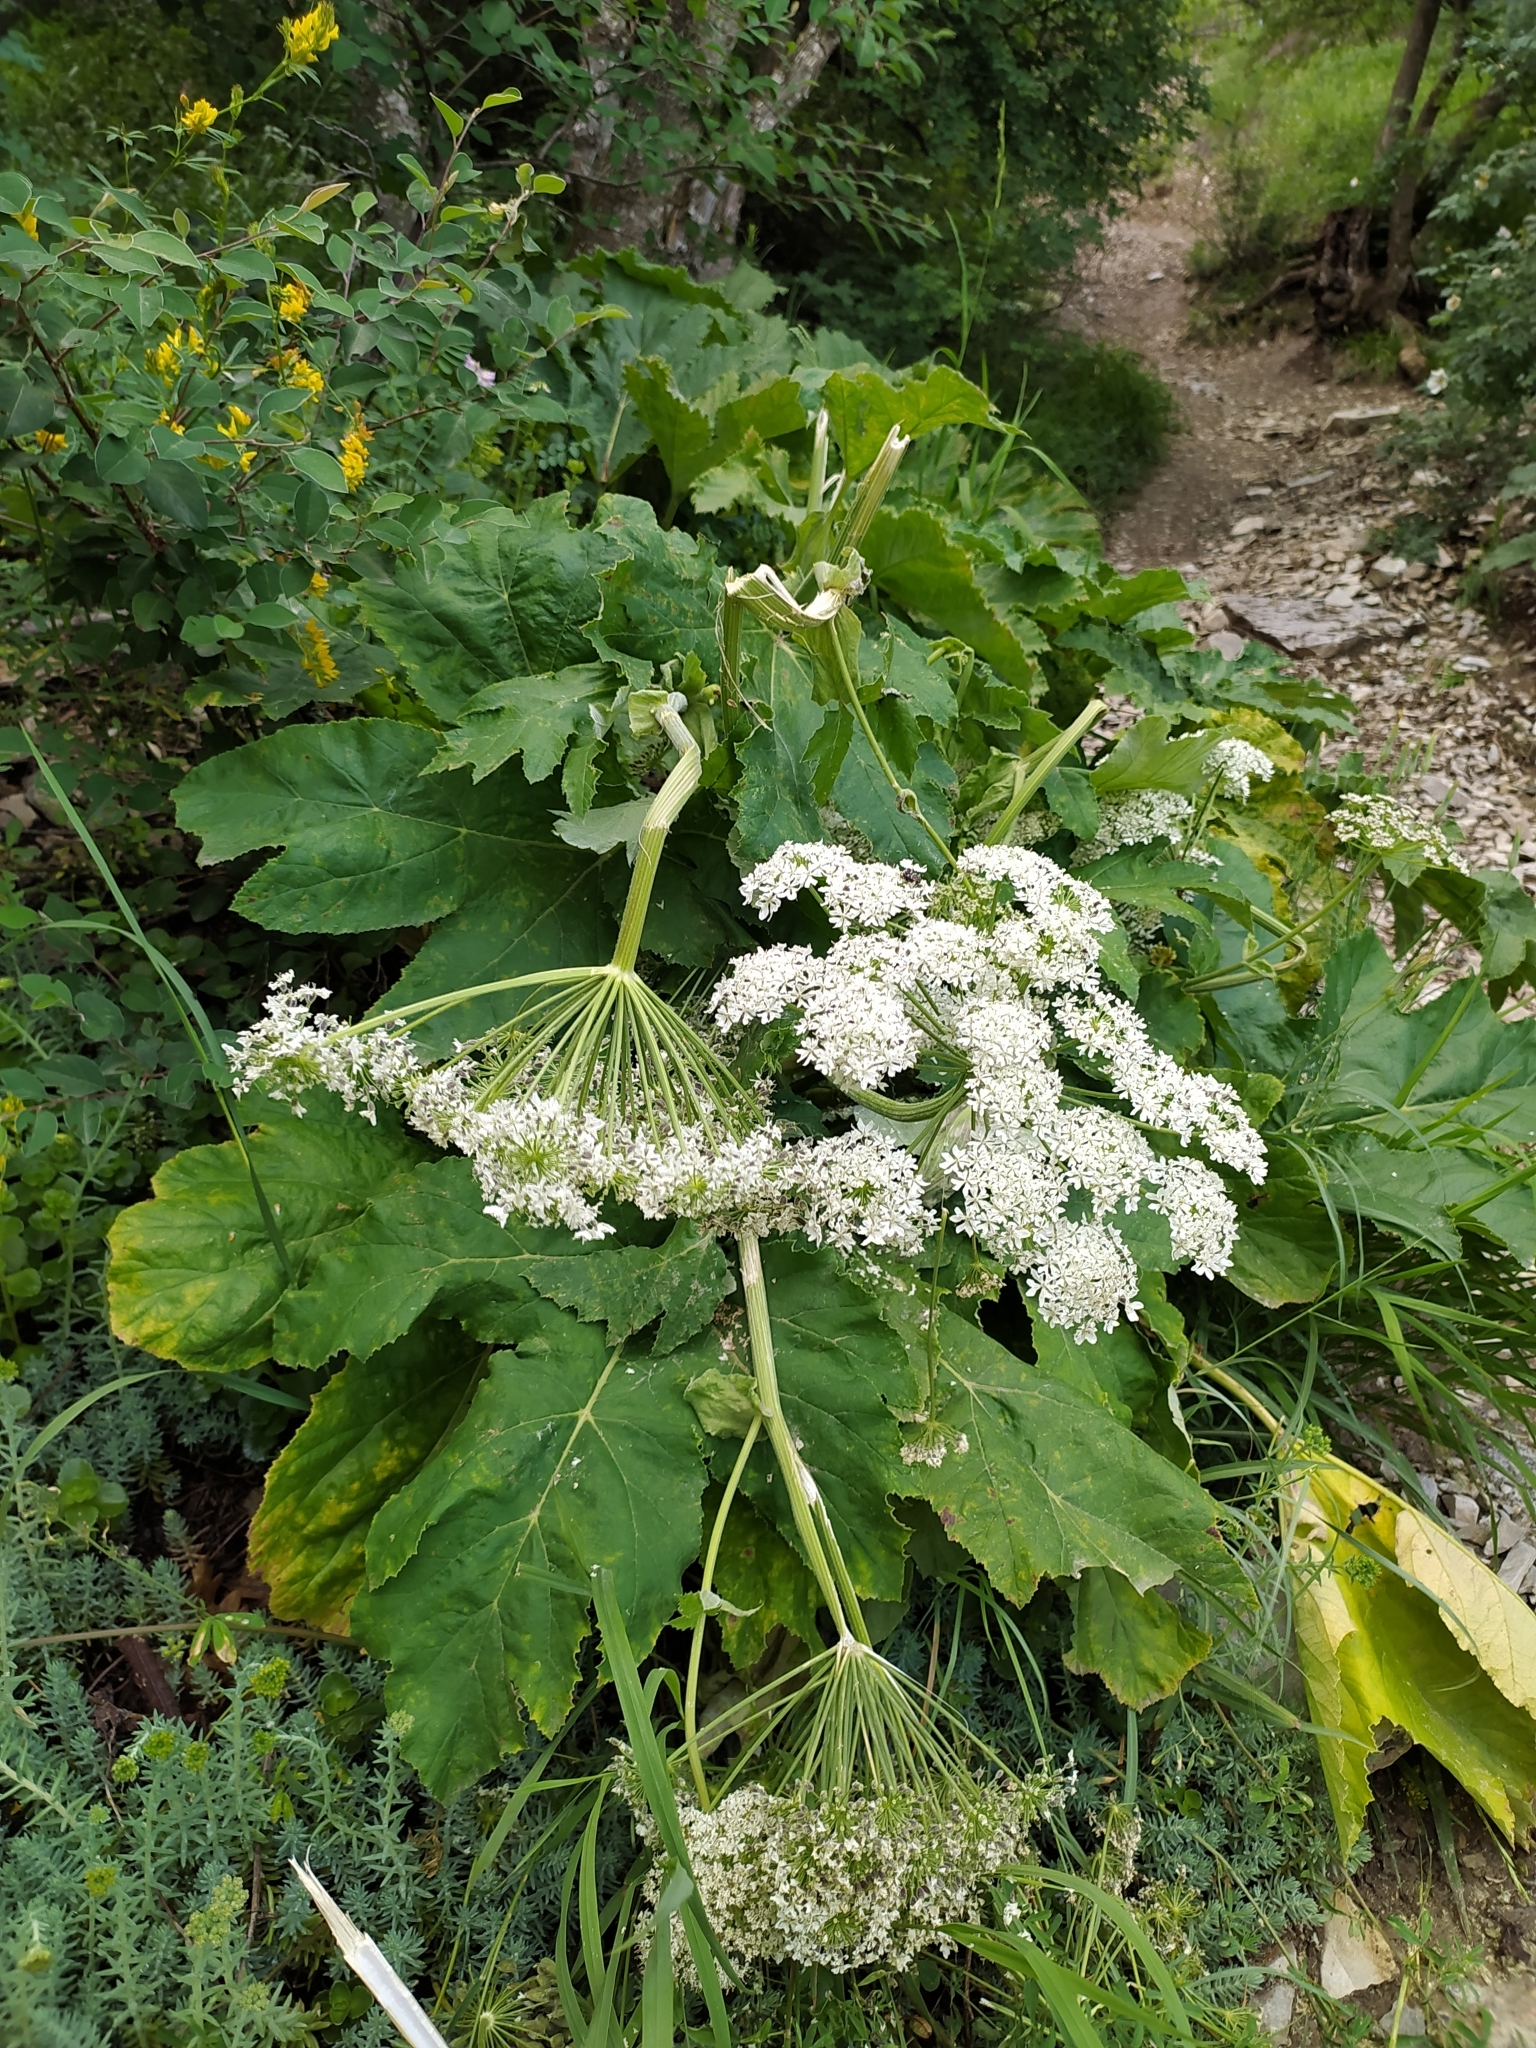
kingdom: Plantae
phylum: Tracheophyta
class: Magnoliopsida
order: Apiales
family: Apiaceae
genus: Heracleum
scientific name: Heracleum leskovii
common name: Leskov's cow-parsnip
